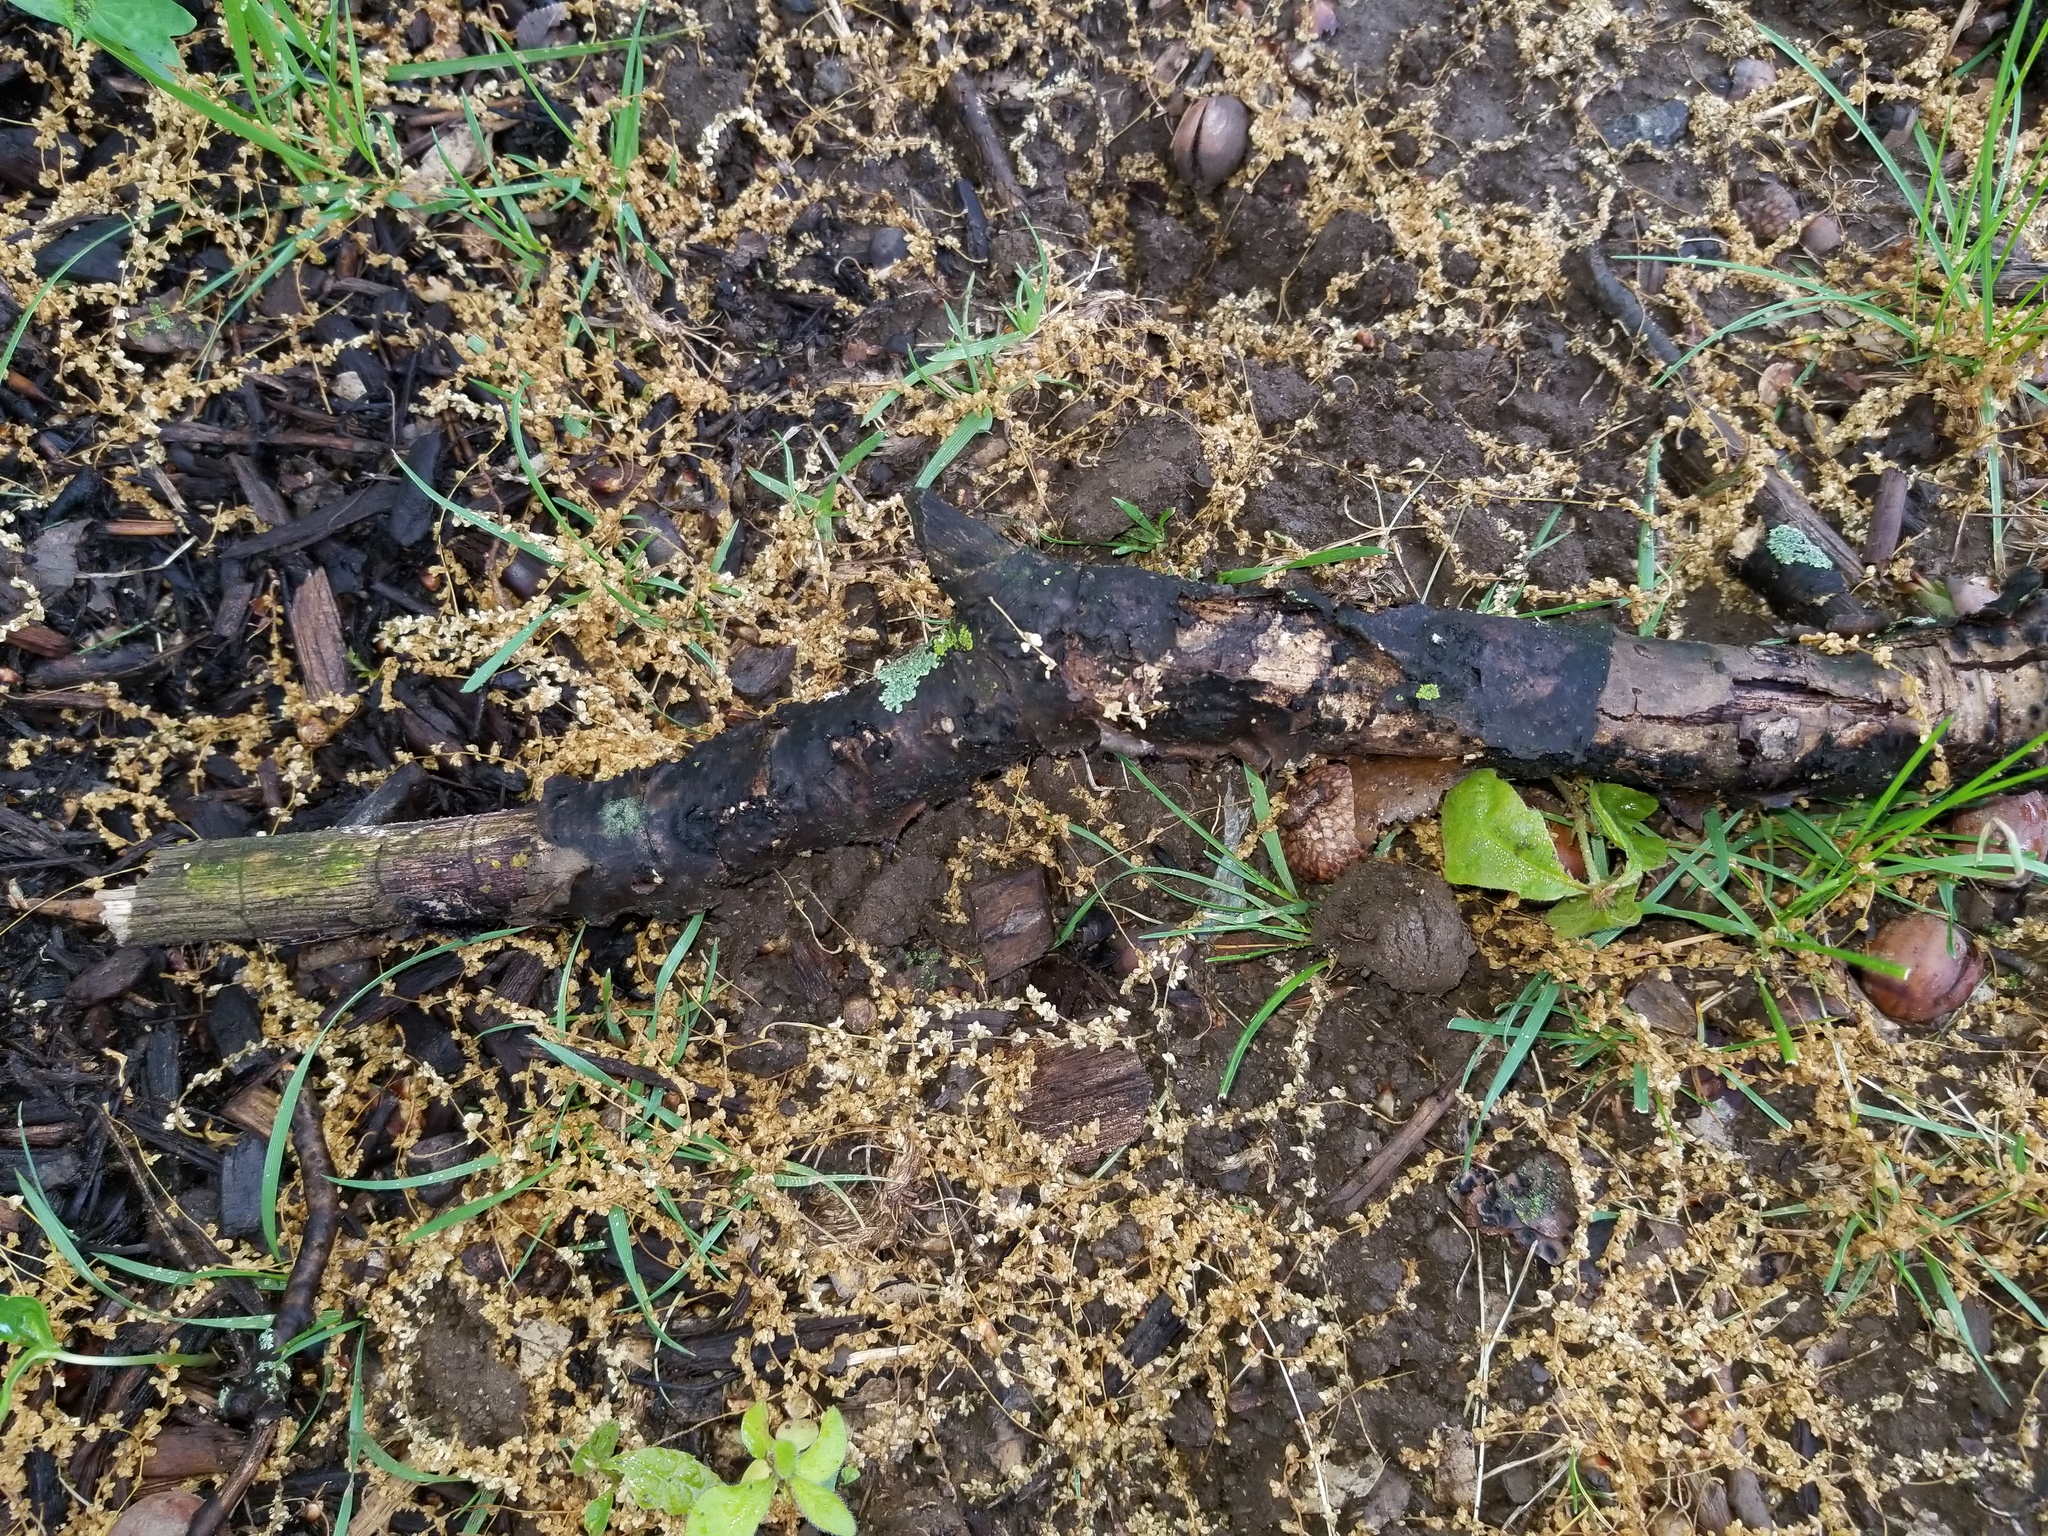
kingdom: Fungi
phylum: Ascomycota
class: Leotiomycetes
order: Chaetomellales
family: Marthamycetaceae
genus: Propolis
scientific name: Propolis farinosa
